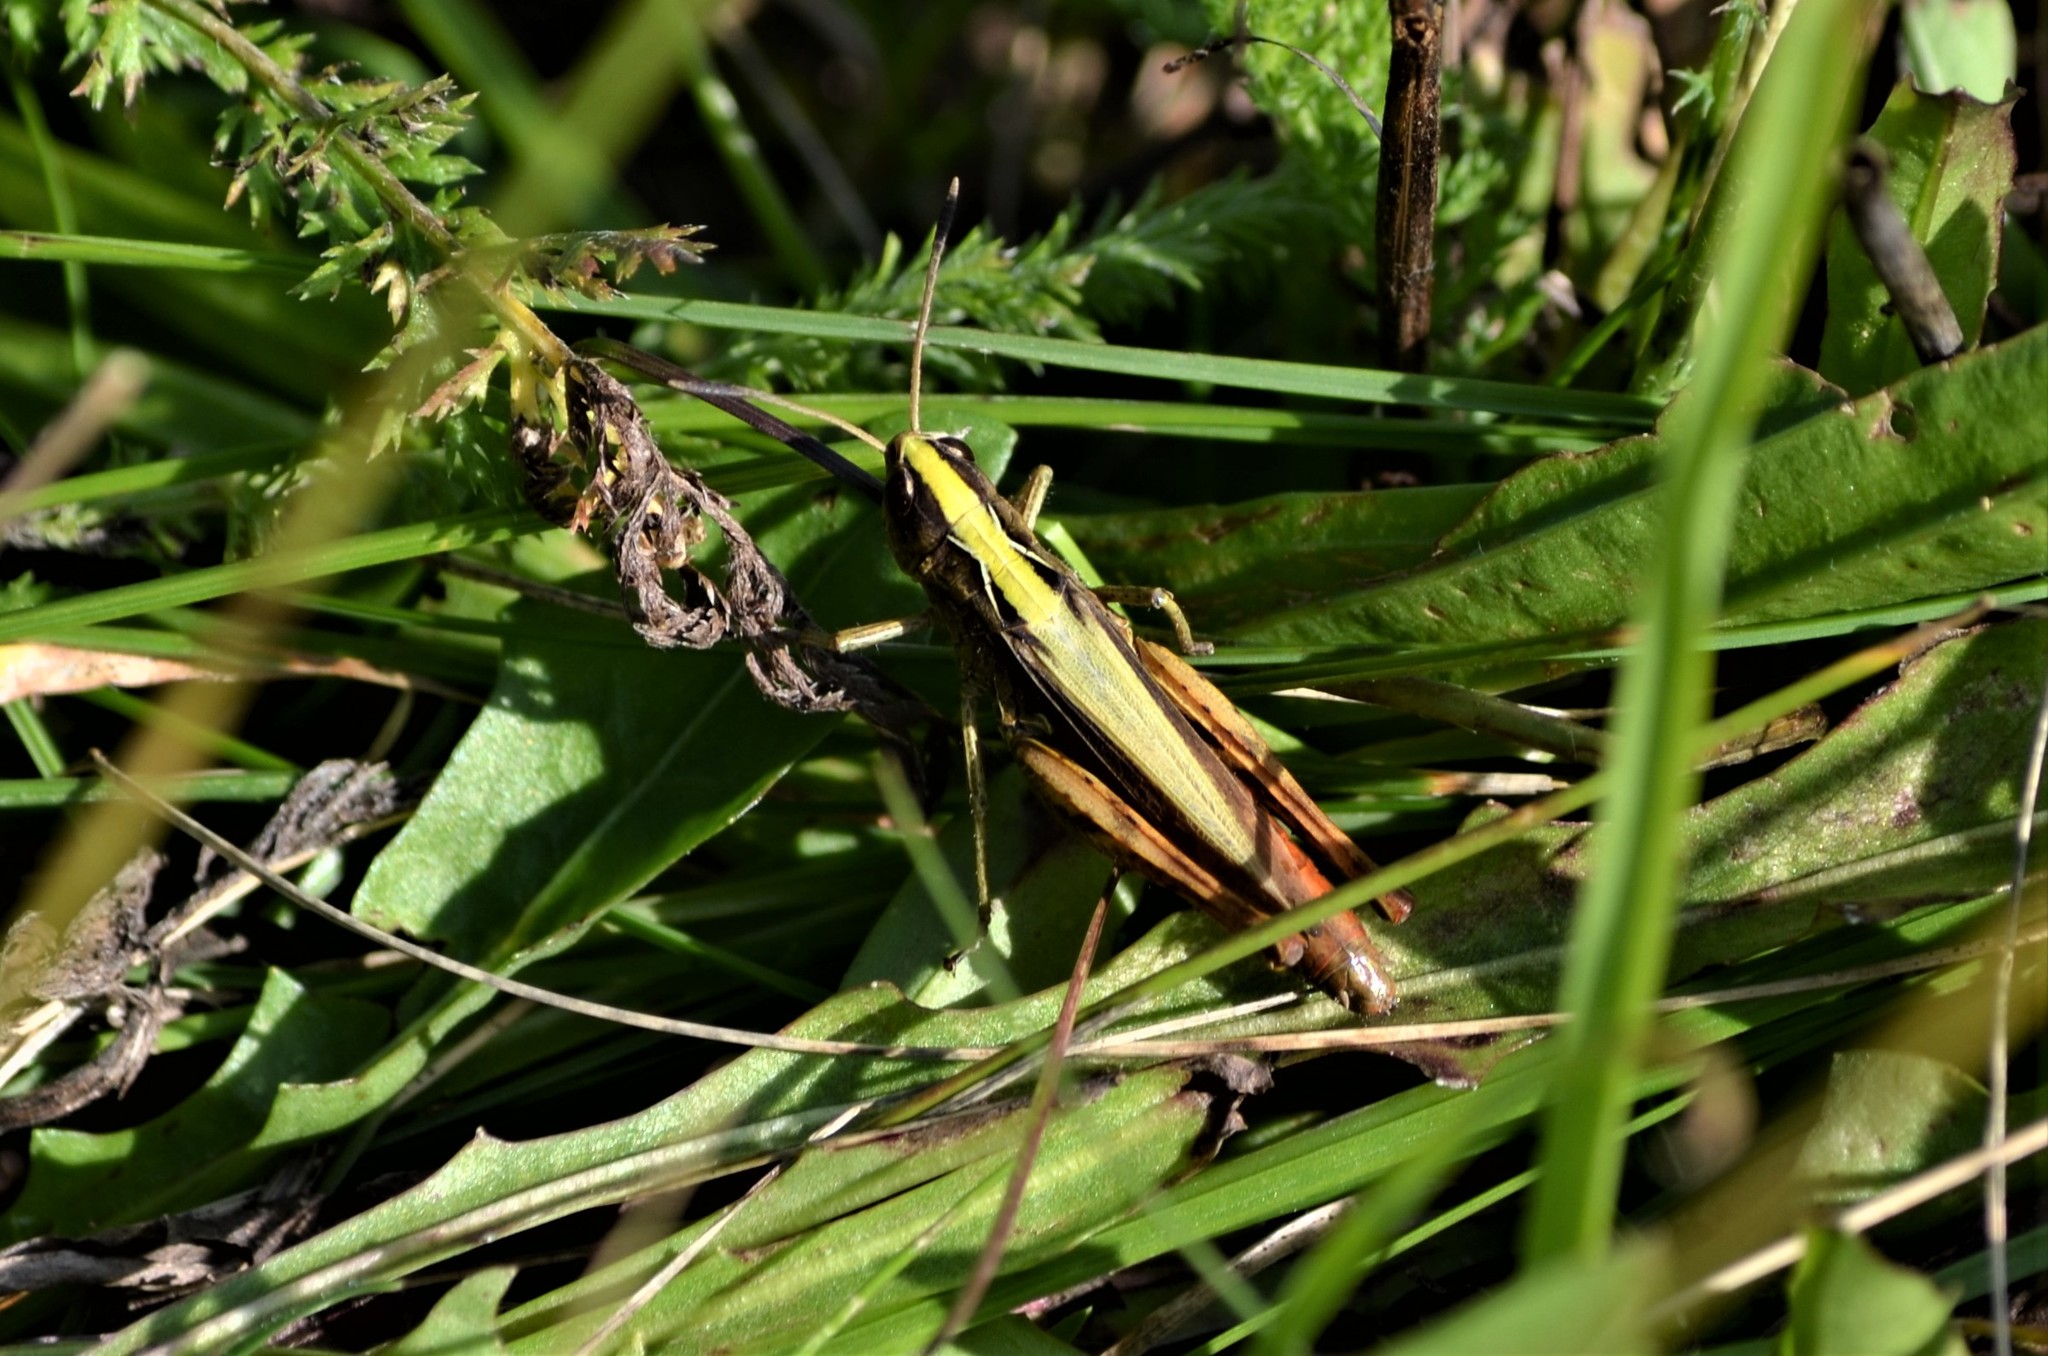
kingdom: Animalia
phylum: Arthropoda
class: Insecta
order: Orthoptera
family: Acrididae
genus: Gomphocerippus
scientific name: Gomphocerippus rufus
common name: Rufous grasshopper
